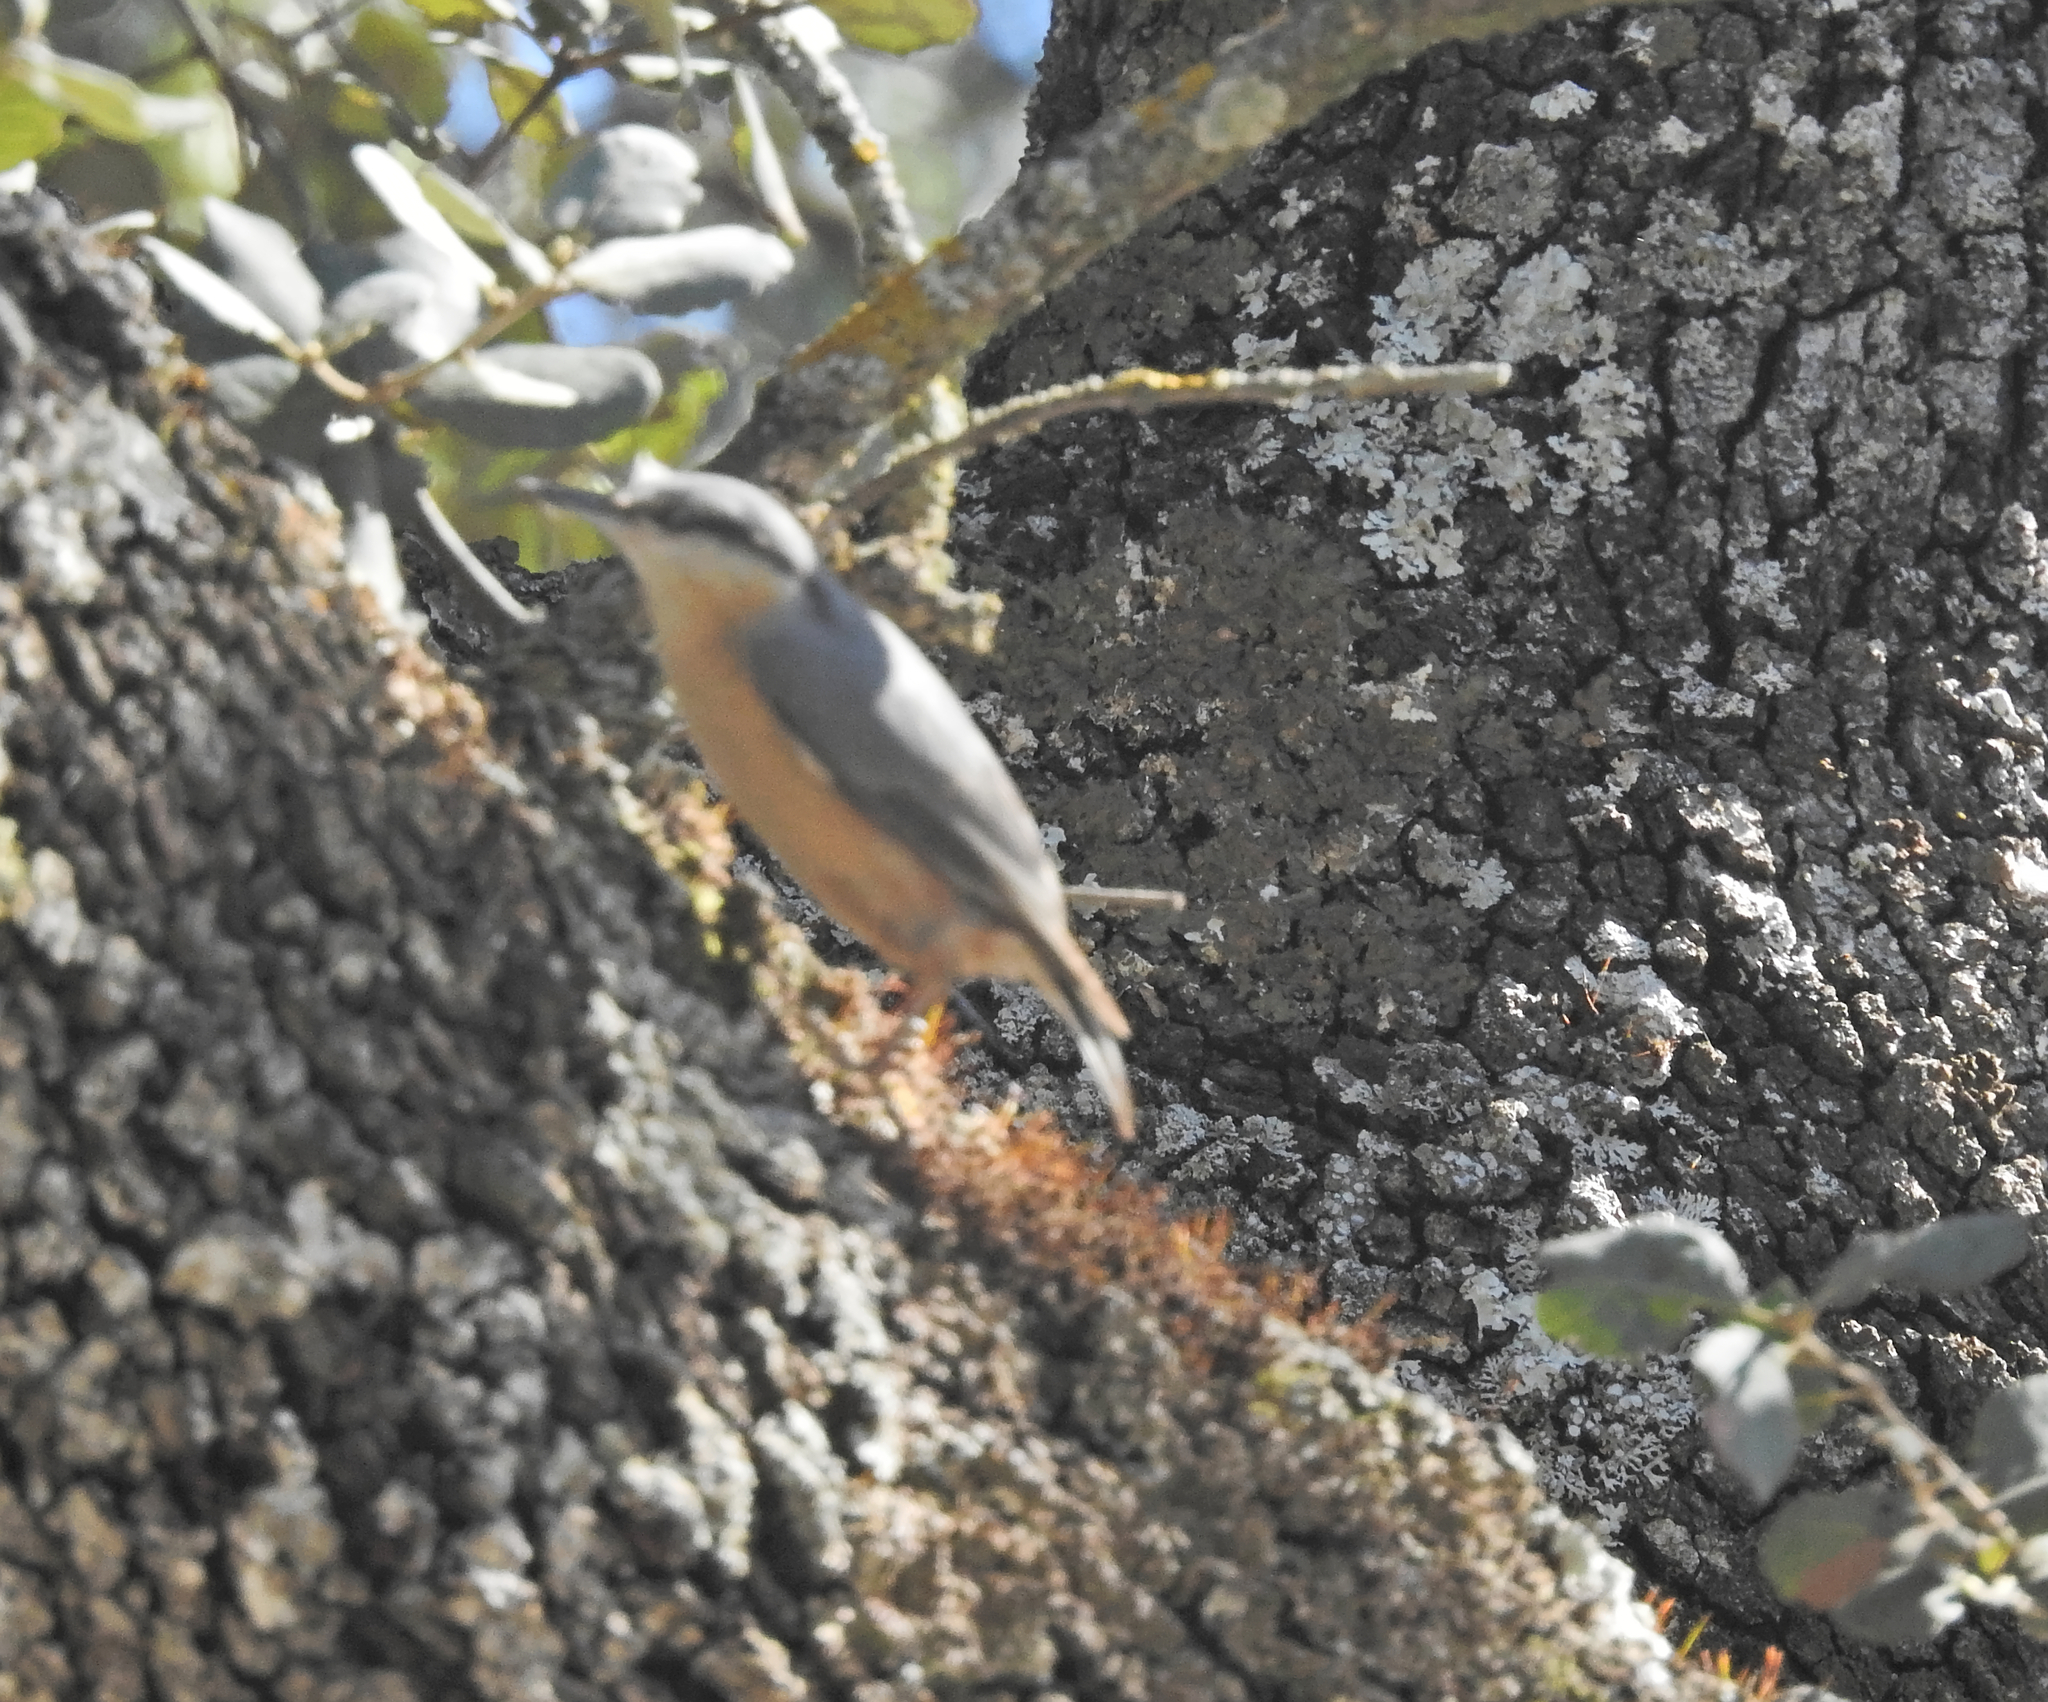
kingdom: Animalia
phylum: Chordata
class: Aves
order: Passeriformes
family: Sittidae
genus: Sitta
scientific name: Sitta europaea
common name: Eurasian nuthatch
